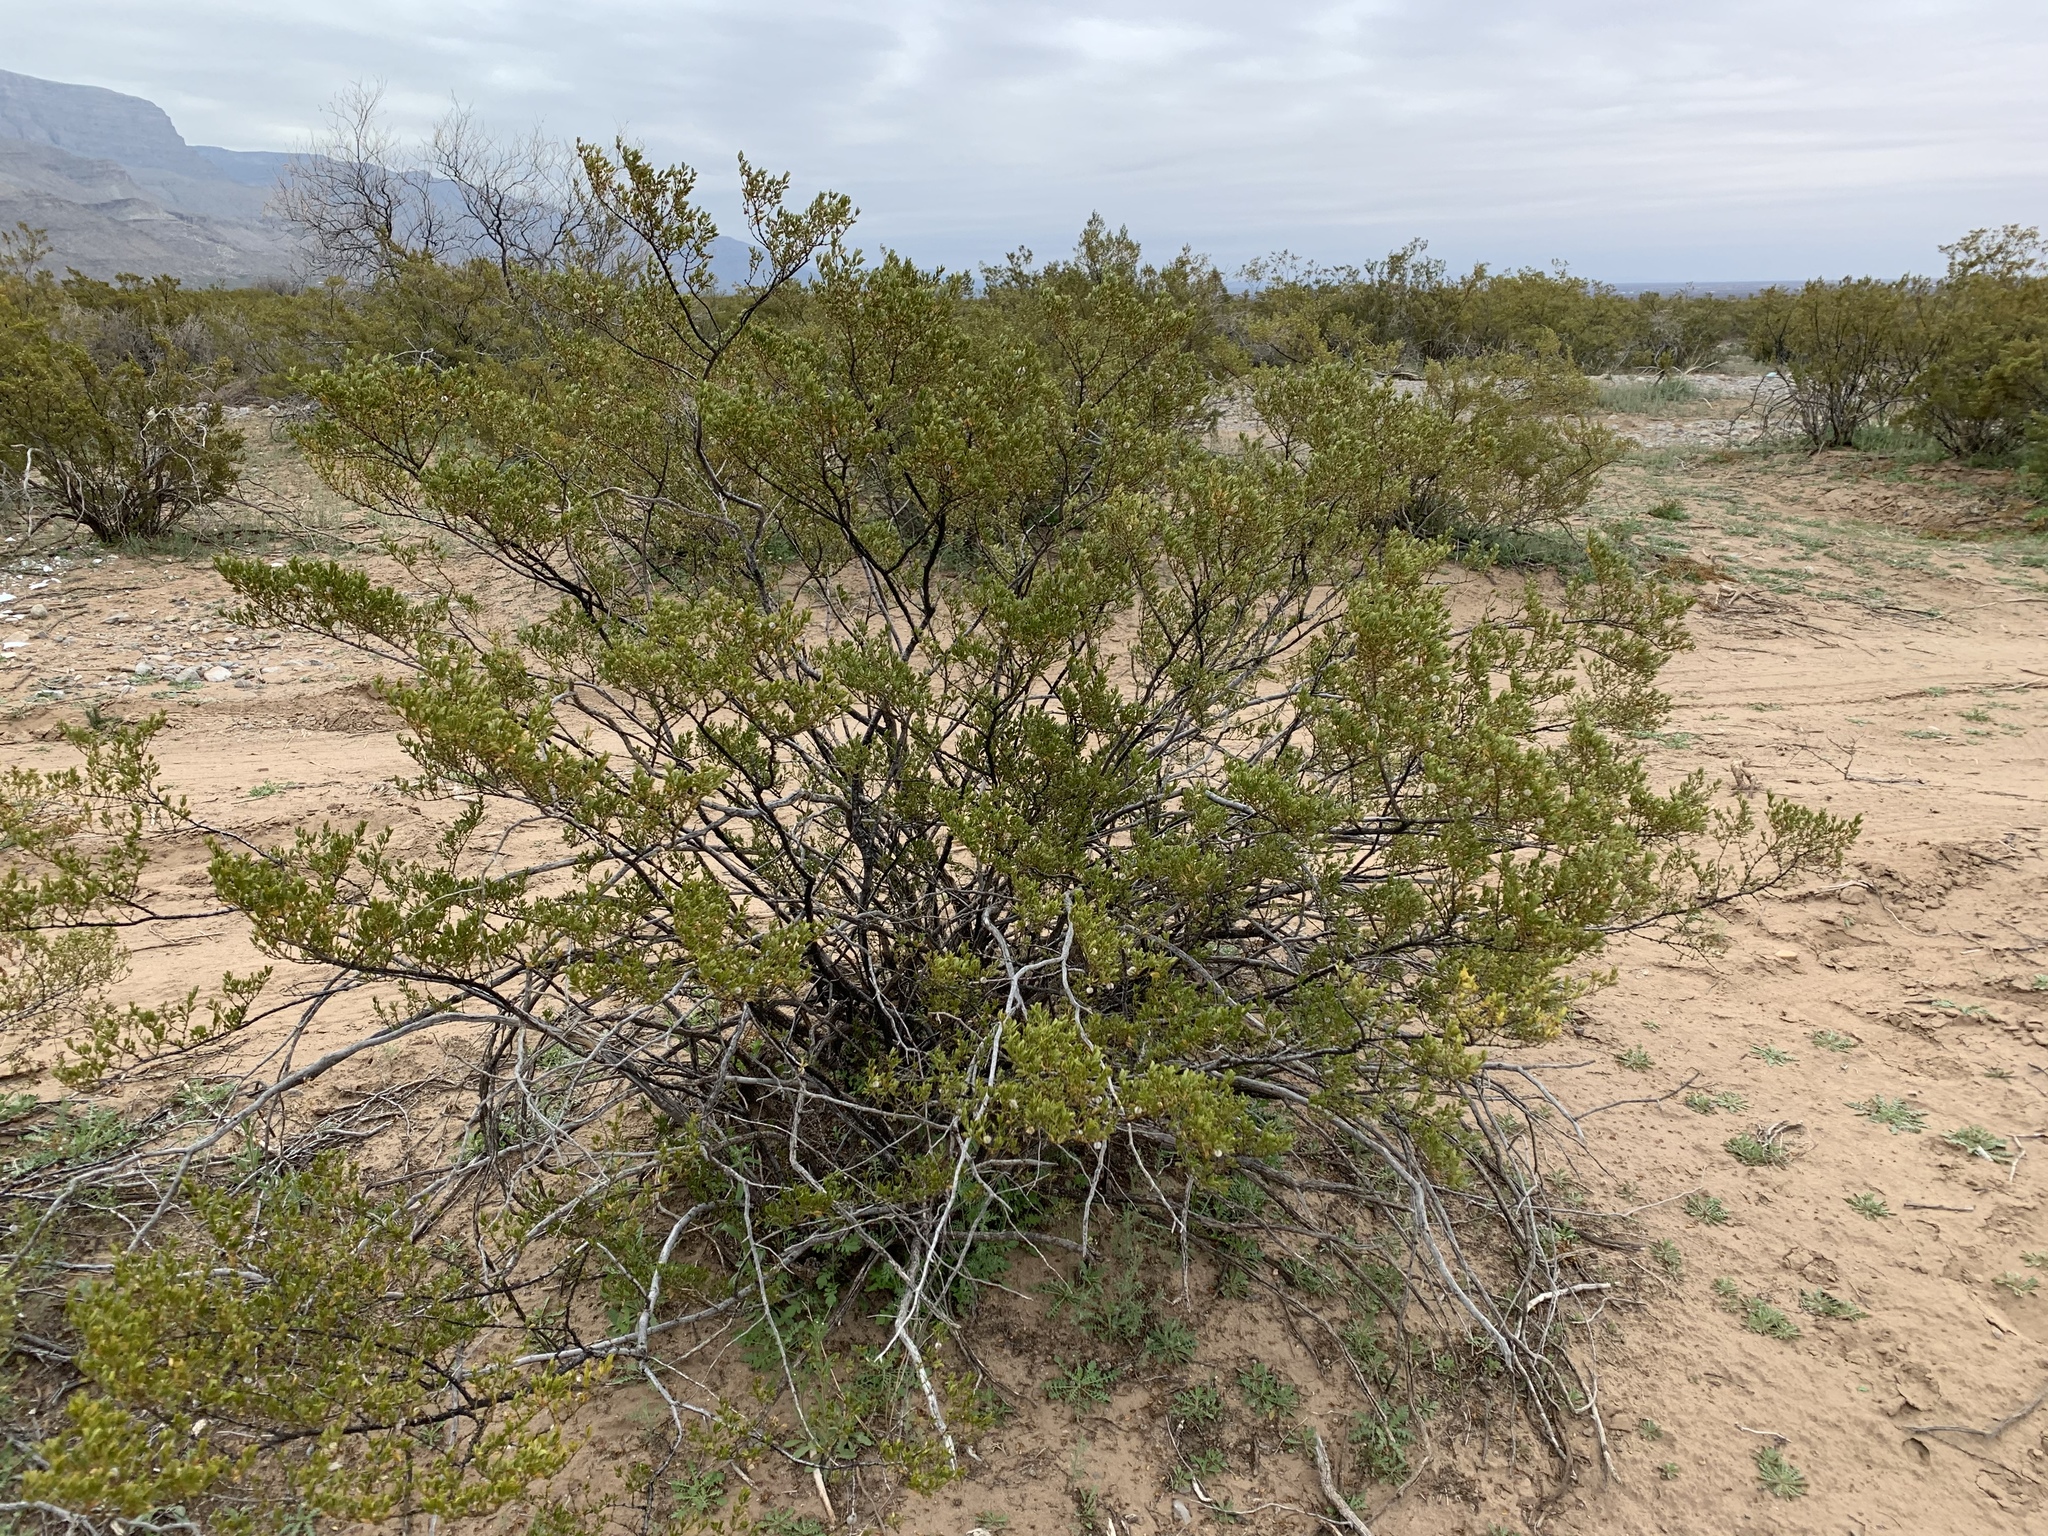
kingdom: Plantae
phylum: Tracheophyta
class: Magnoliopsida
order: Zygophyllales
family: Zygophyllaceae
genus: Larrea
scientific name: Larrea tridentata
